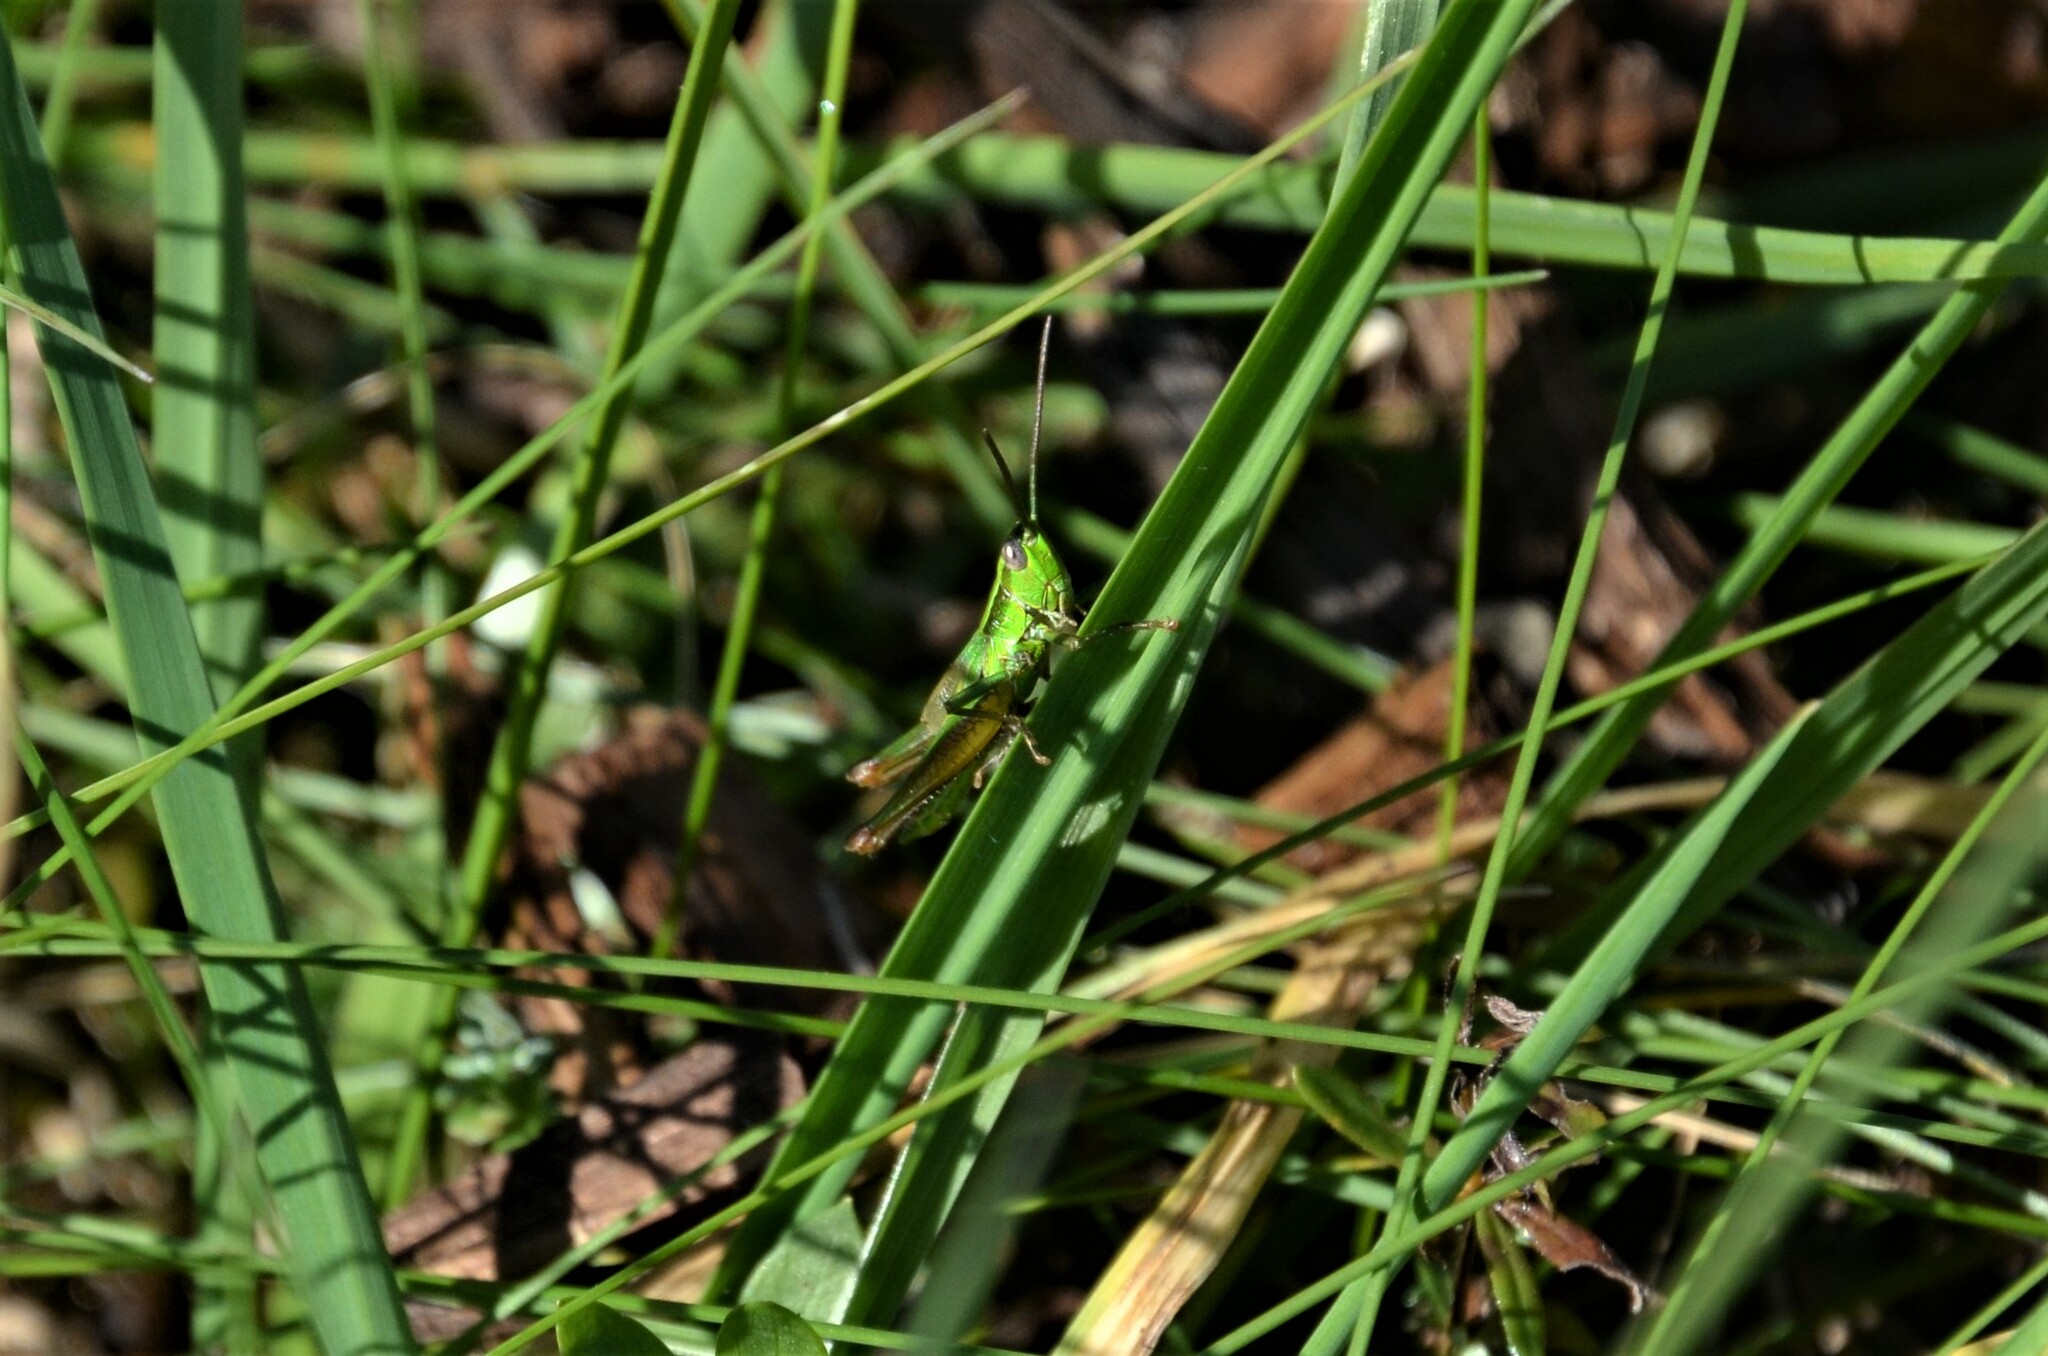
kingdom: Animalia
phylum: Arthropoda
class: Insecta
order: Orthoptera
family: Acrididae
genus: Euthystira
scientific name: Euthystira brachyptera
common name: Small gold grasshopper
